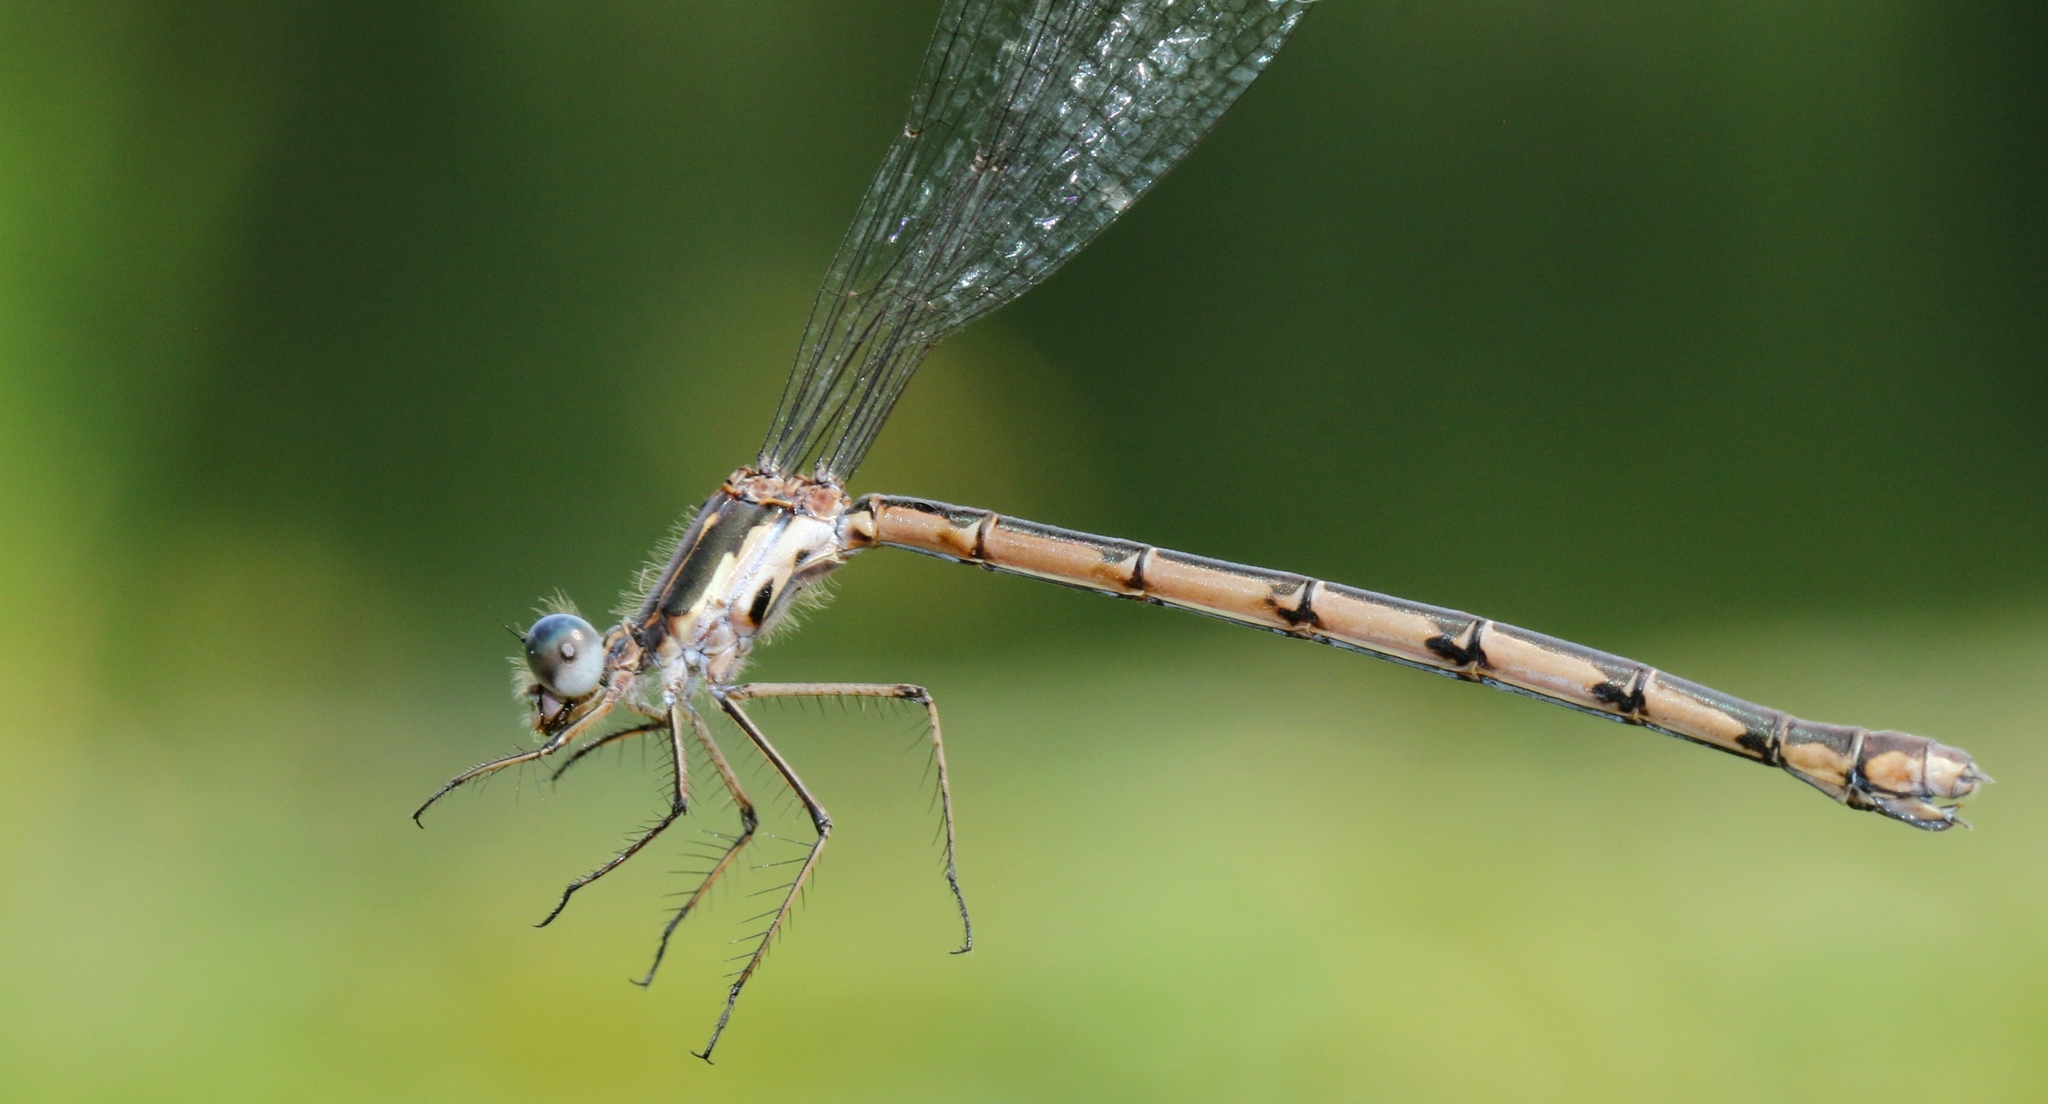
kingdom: Animalia
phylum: Arthropoda
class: Insecta
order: Odonata
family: Lestidae
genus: Lestes
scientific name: Lestes congener
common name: Spotted spreadwing
